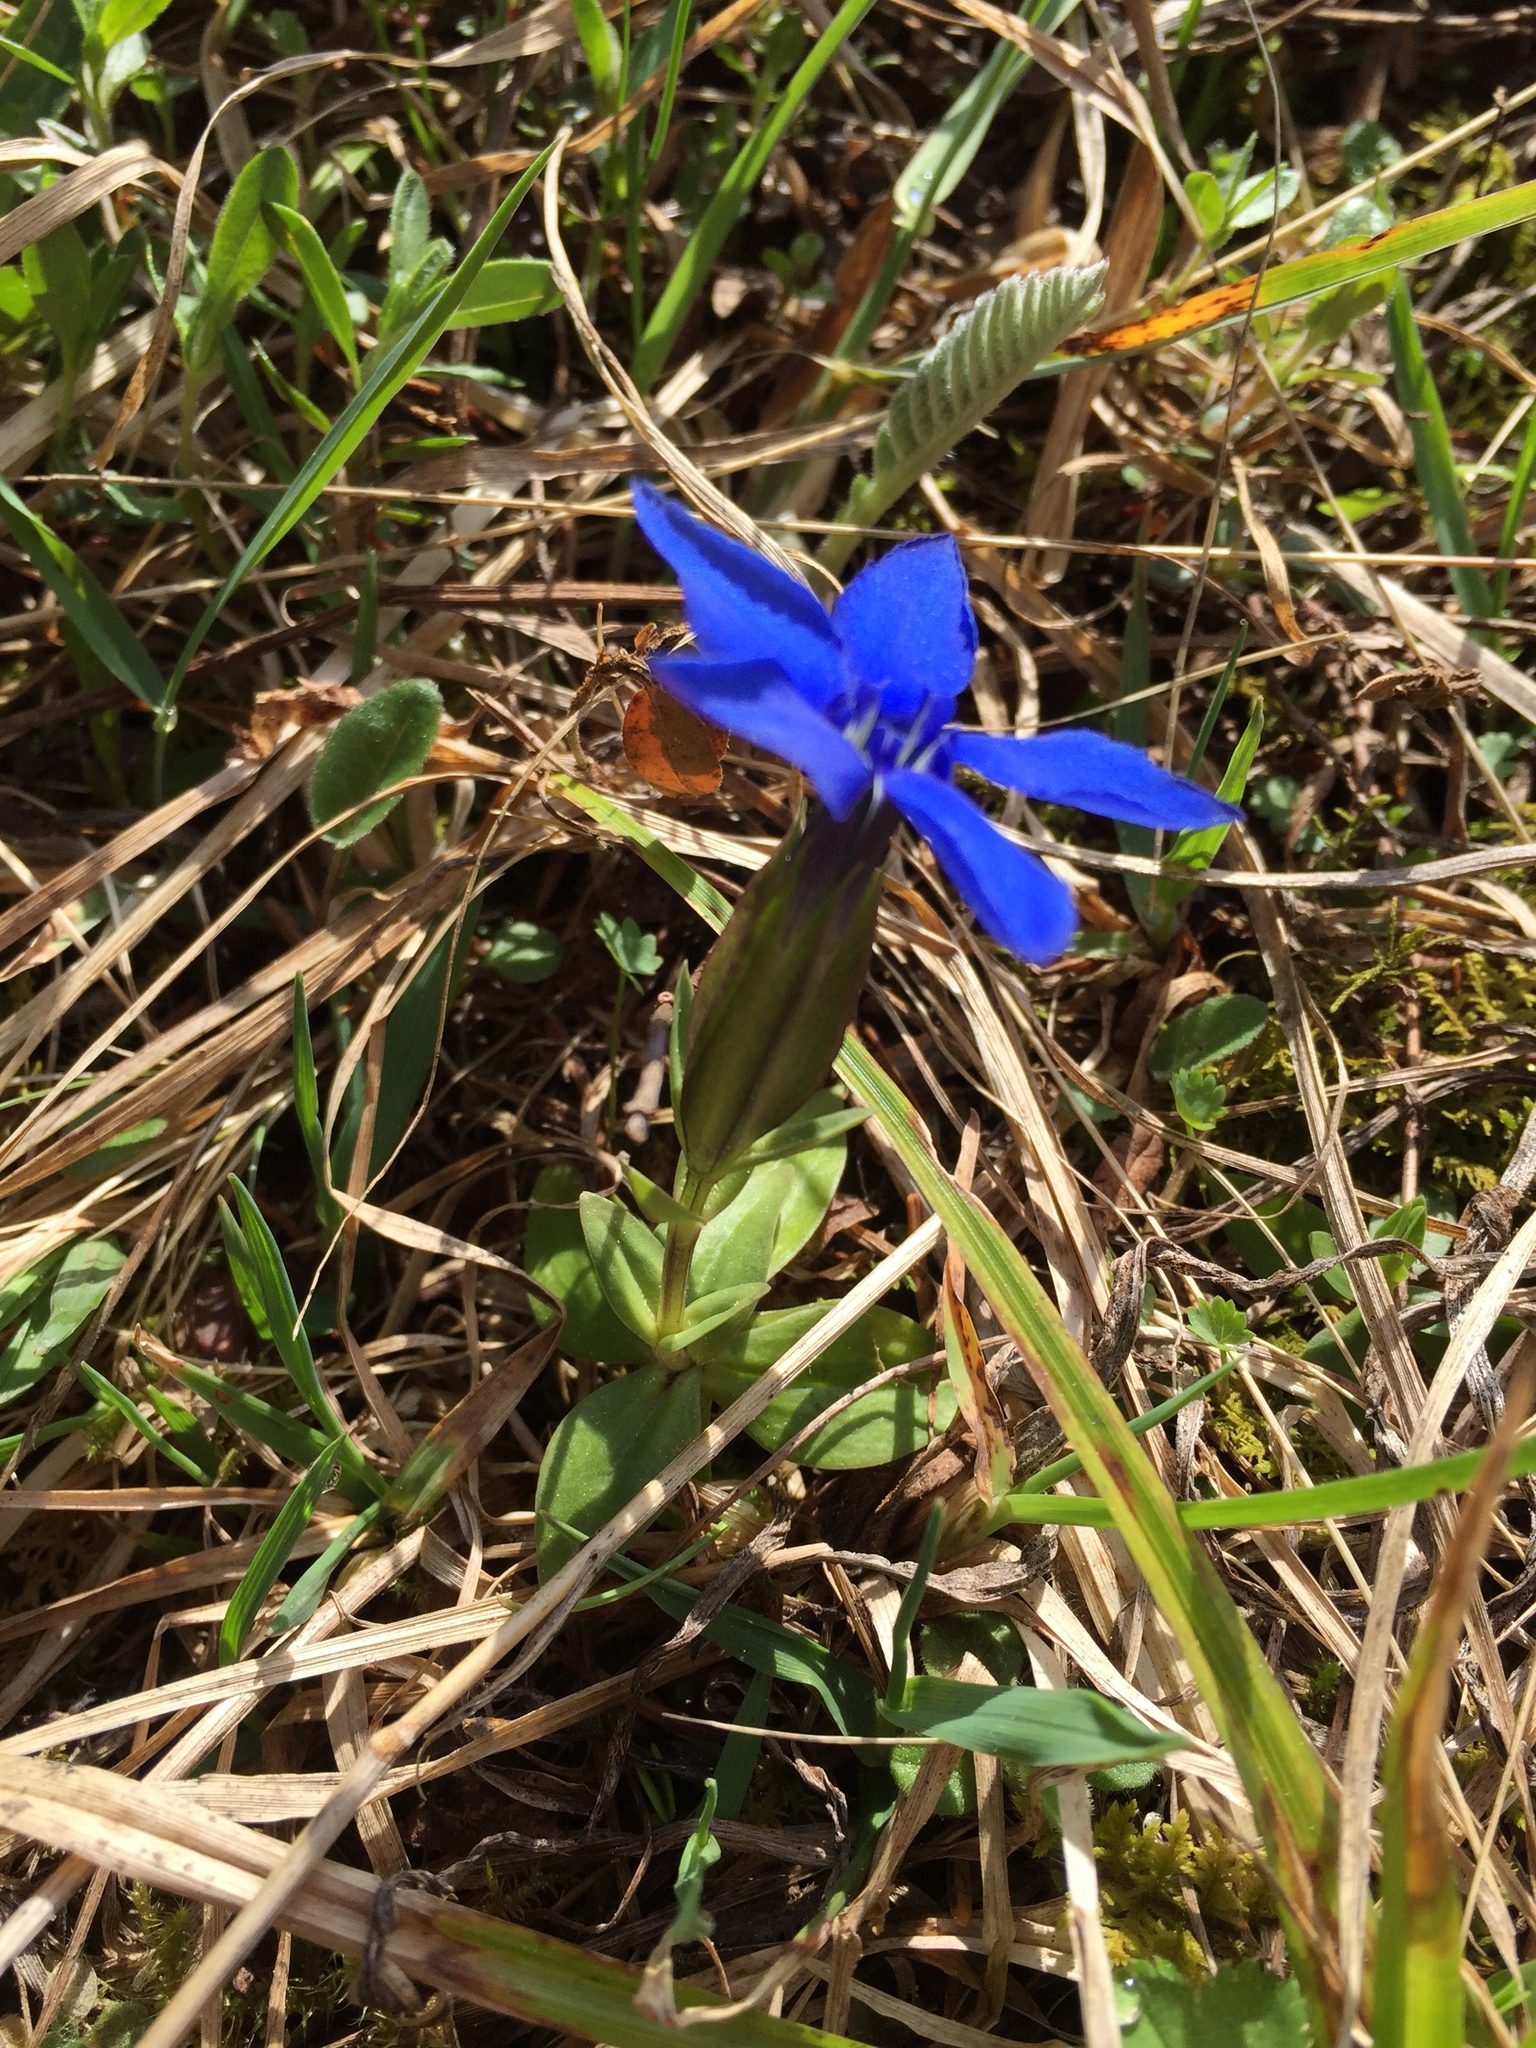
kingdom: Plantae
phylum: Tracheophyta
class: Magnoliopsida
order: Gentianales
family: Gentianaceae
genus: Gentiana
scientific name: Gentiana verna
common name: Spring gentian
